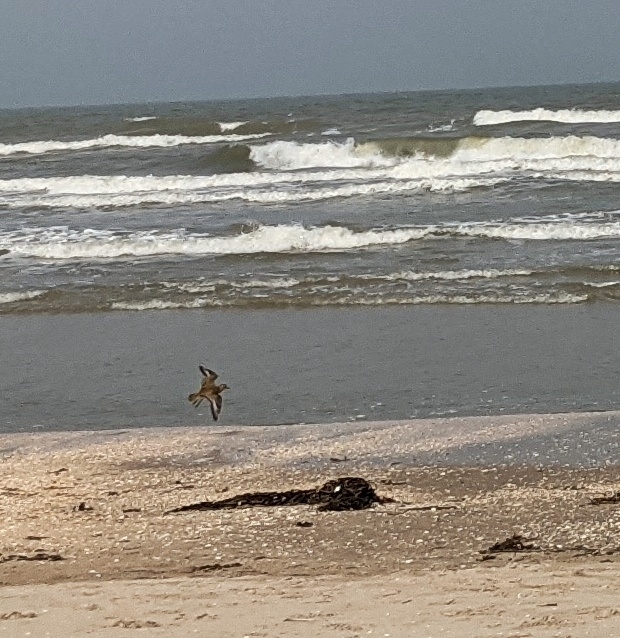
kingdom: Animalia
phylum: Chordata
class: Aves
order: Charadriiformes
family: Charadriidae
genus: Pluvialis
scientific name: Pluvialis apricaria
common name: European golden plover
